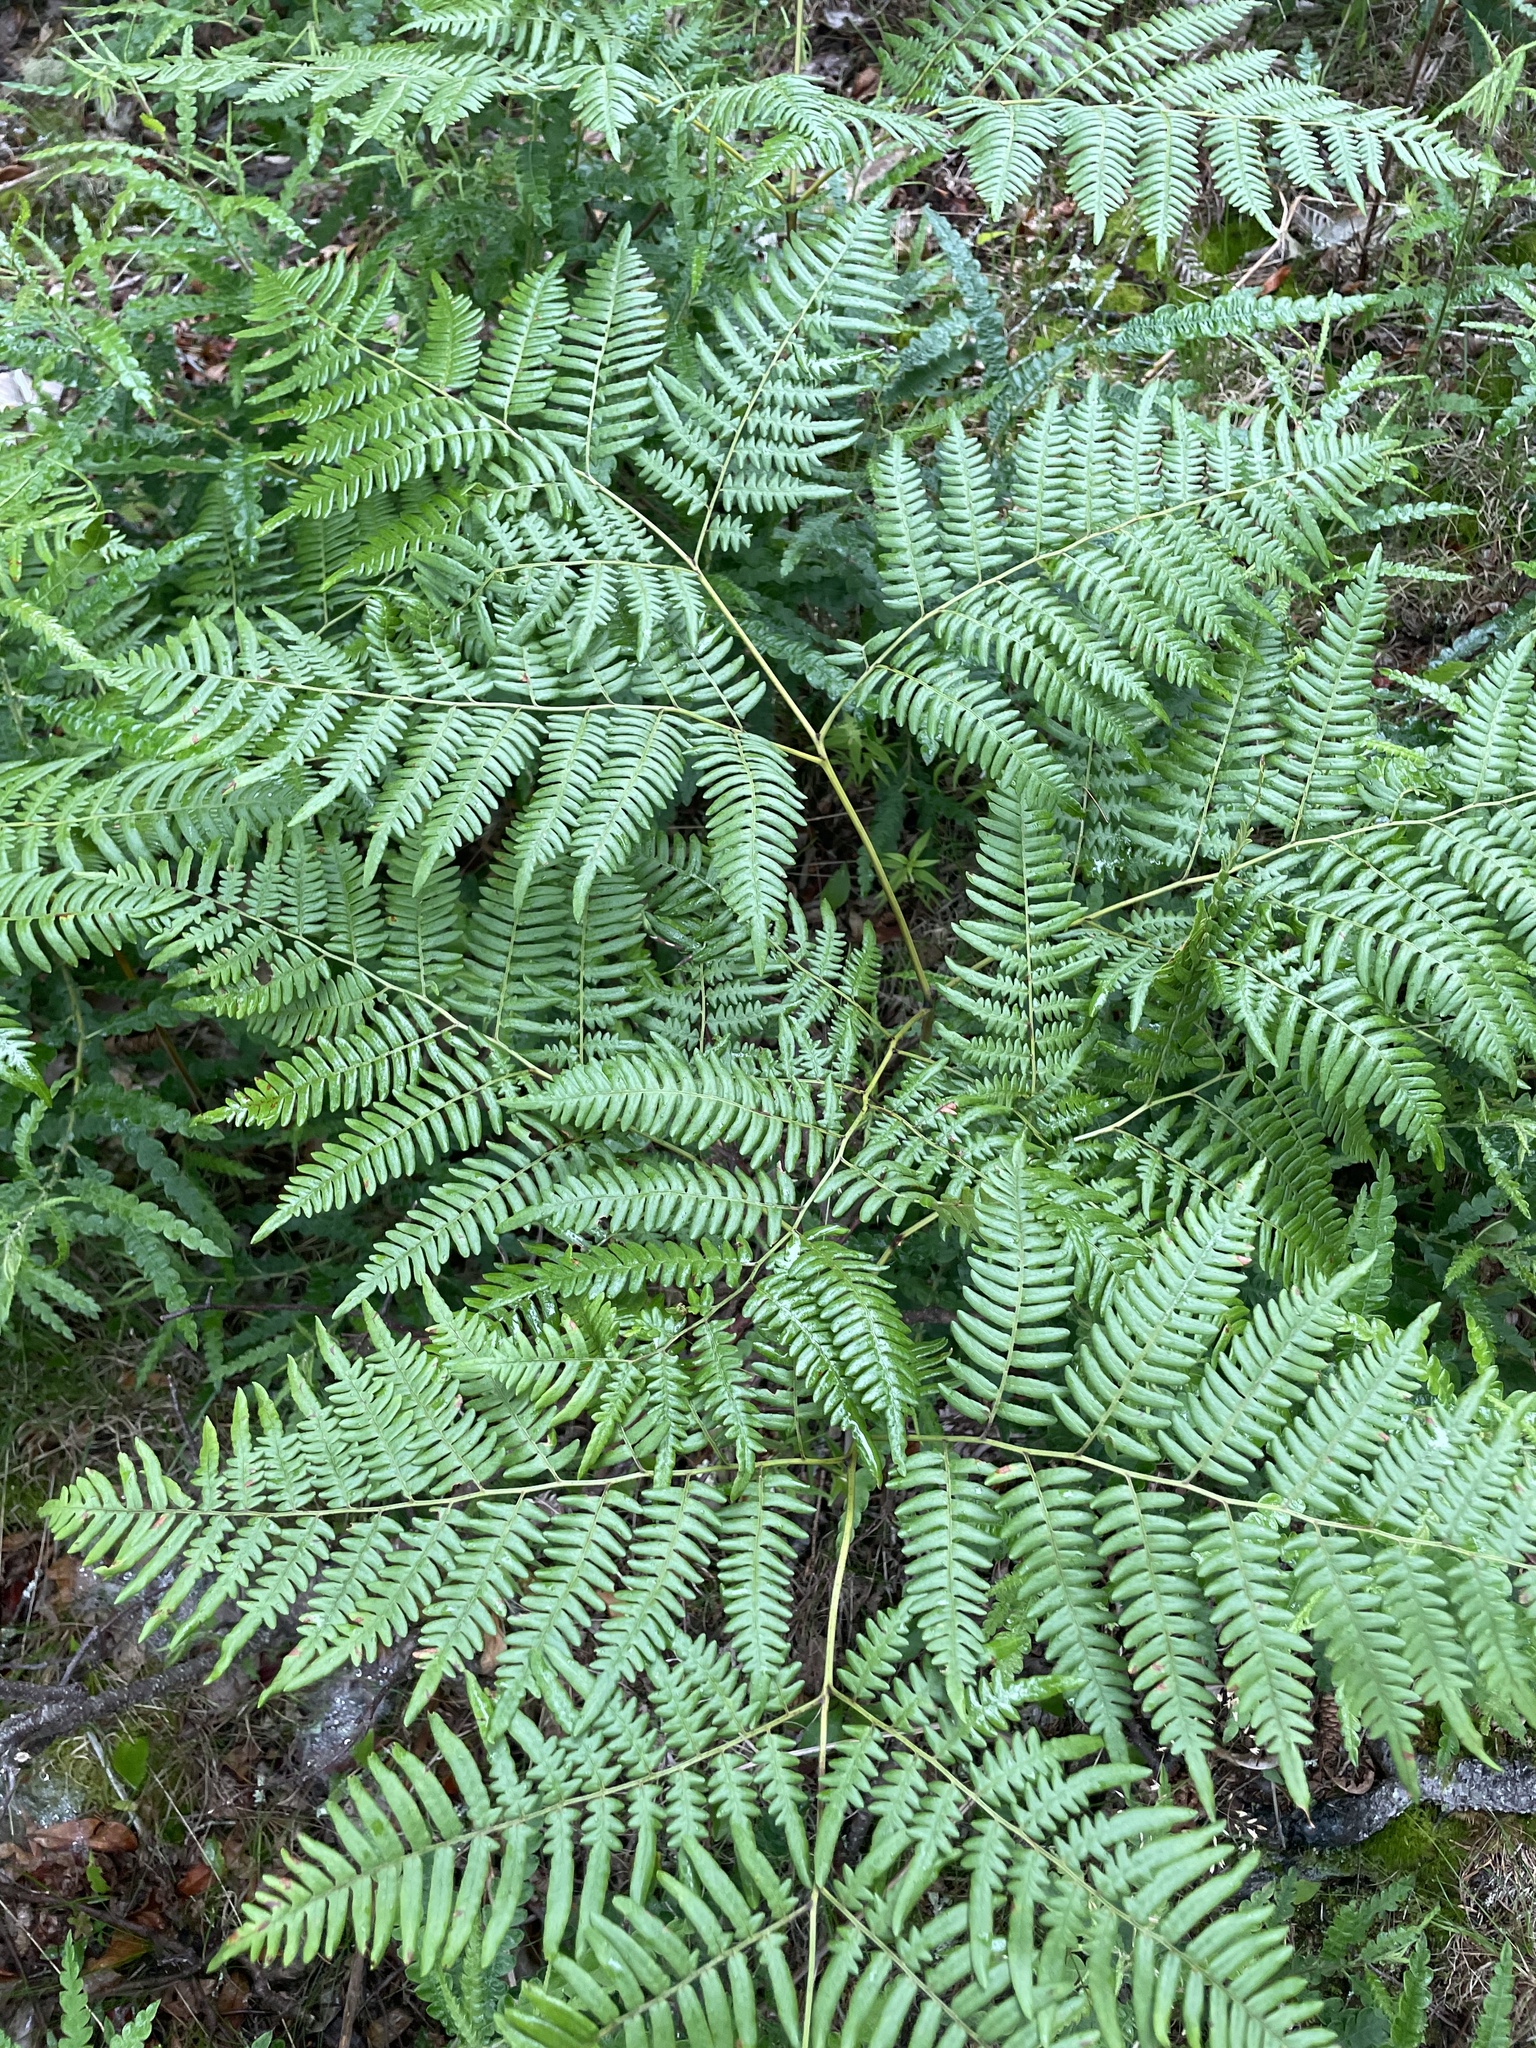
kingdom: Plantae
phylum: Tracheophyta
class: Polypodiopsida
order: Polypodiales
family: Dennstaedtiaceae
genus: Pteridium
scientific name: Pteridium aquilinum
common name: Bracken
